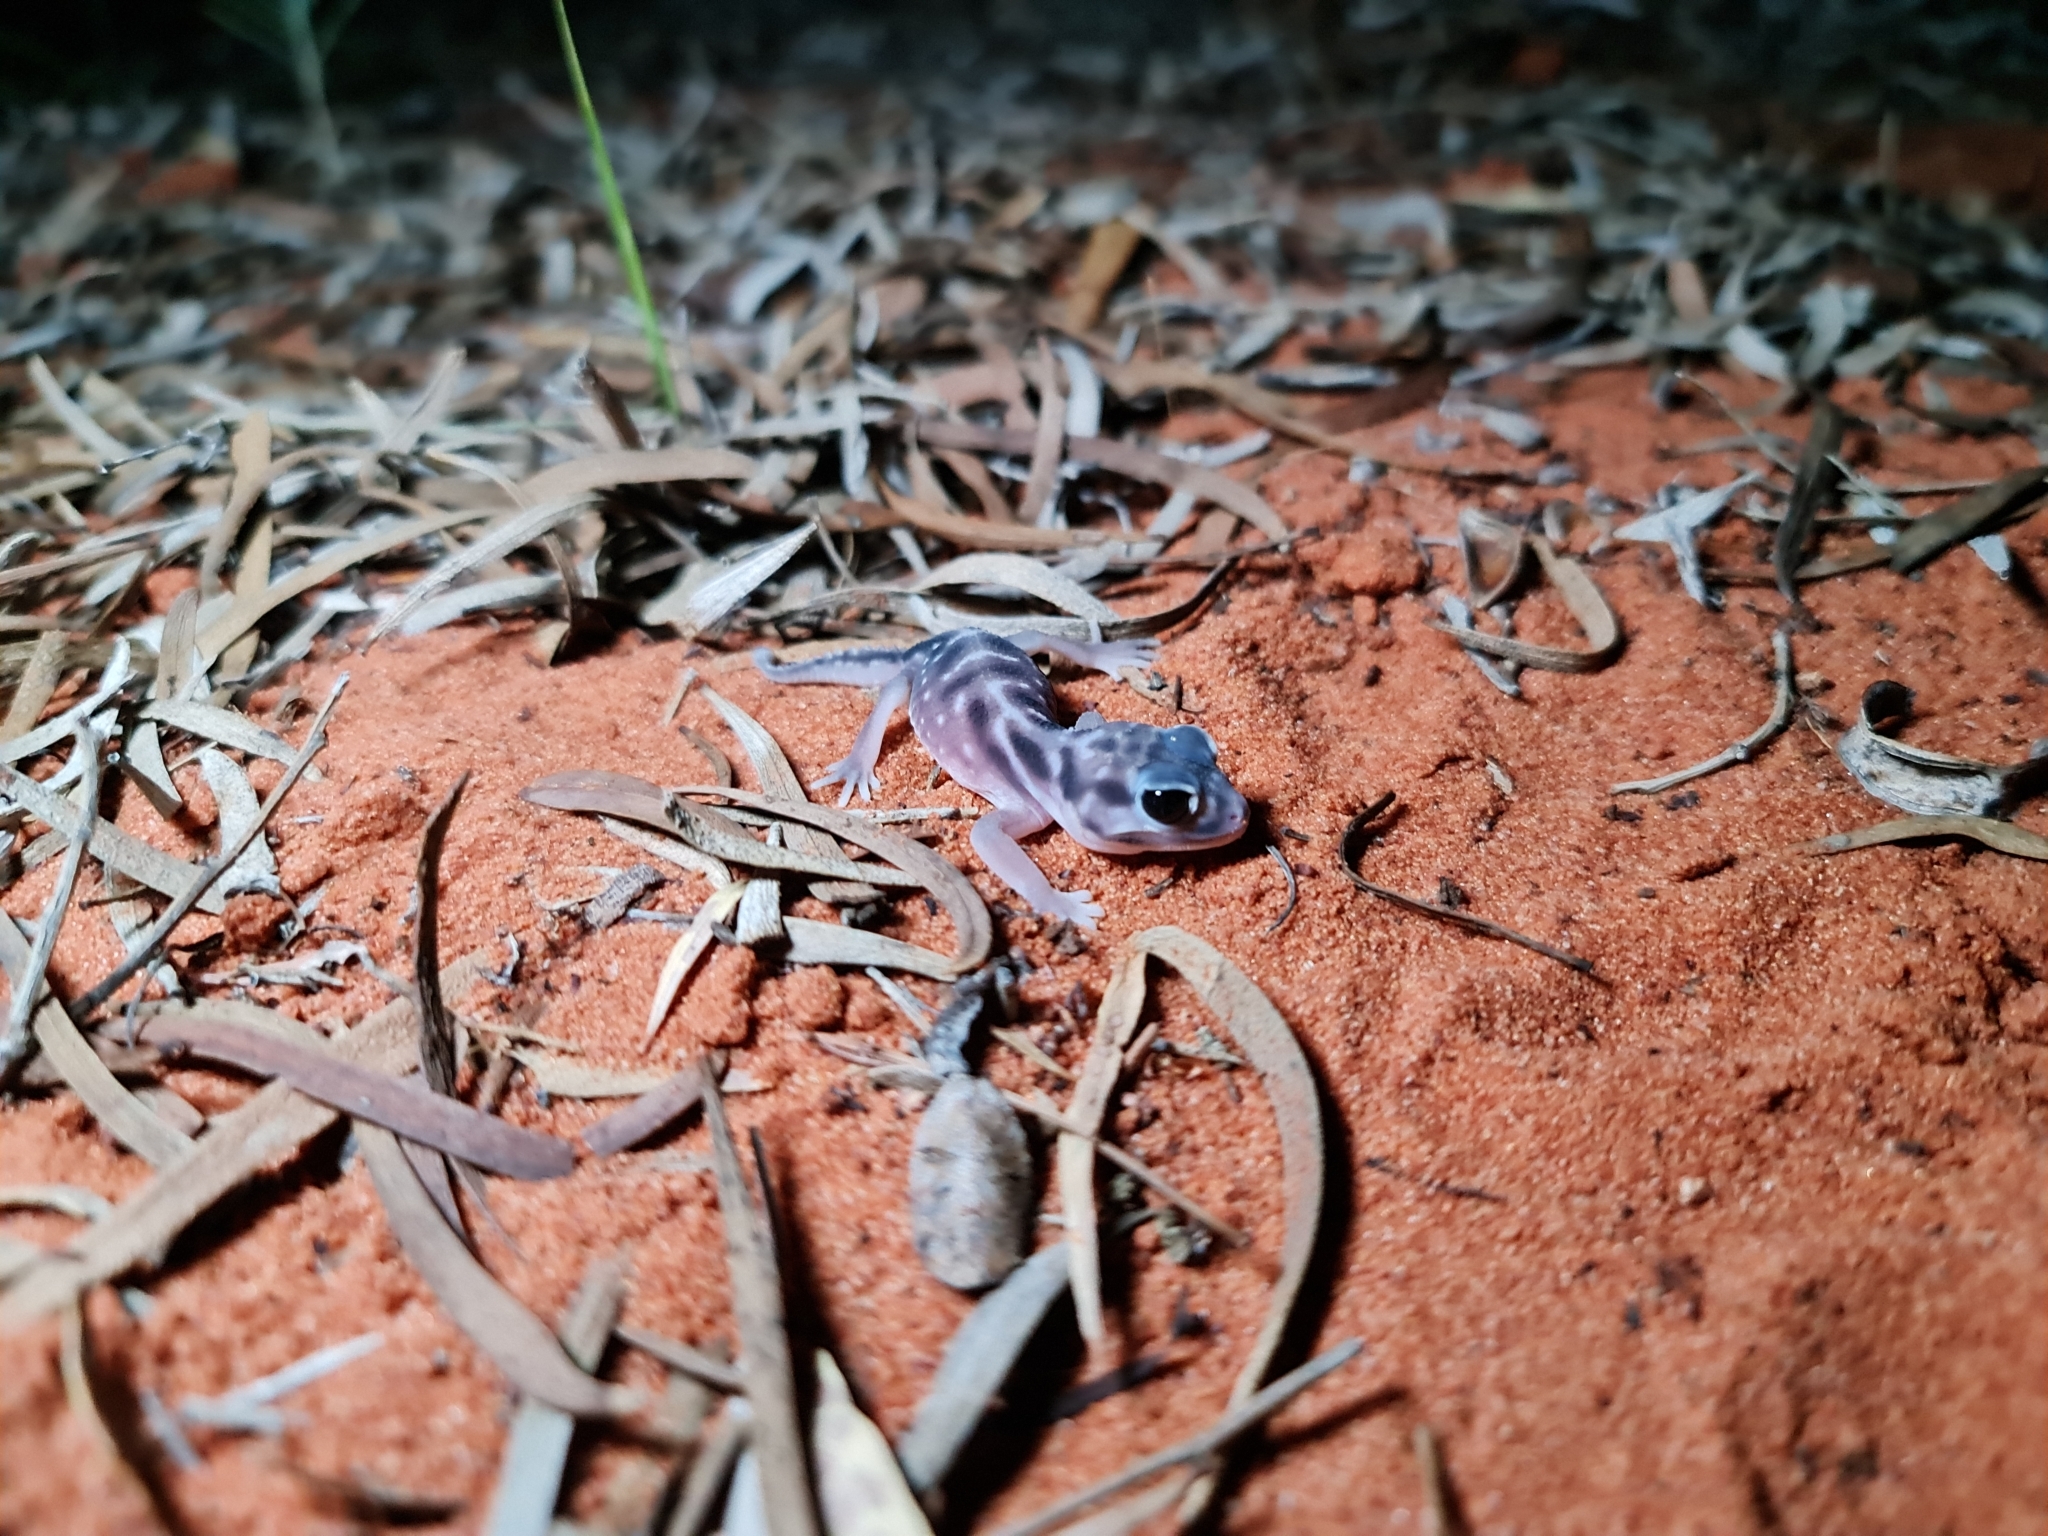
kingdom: Animalia
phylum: Chordata
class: Squamata
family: Carphodactylidae
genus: Nephrurus
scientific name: Nephrurus deleani
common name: Pernatty knob-tail
